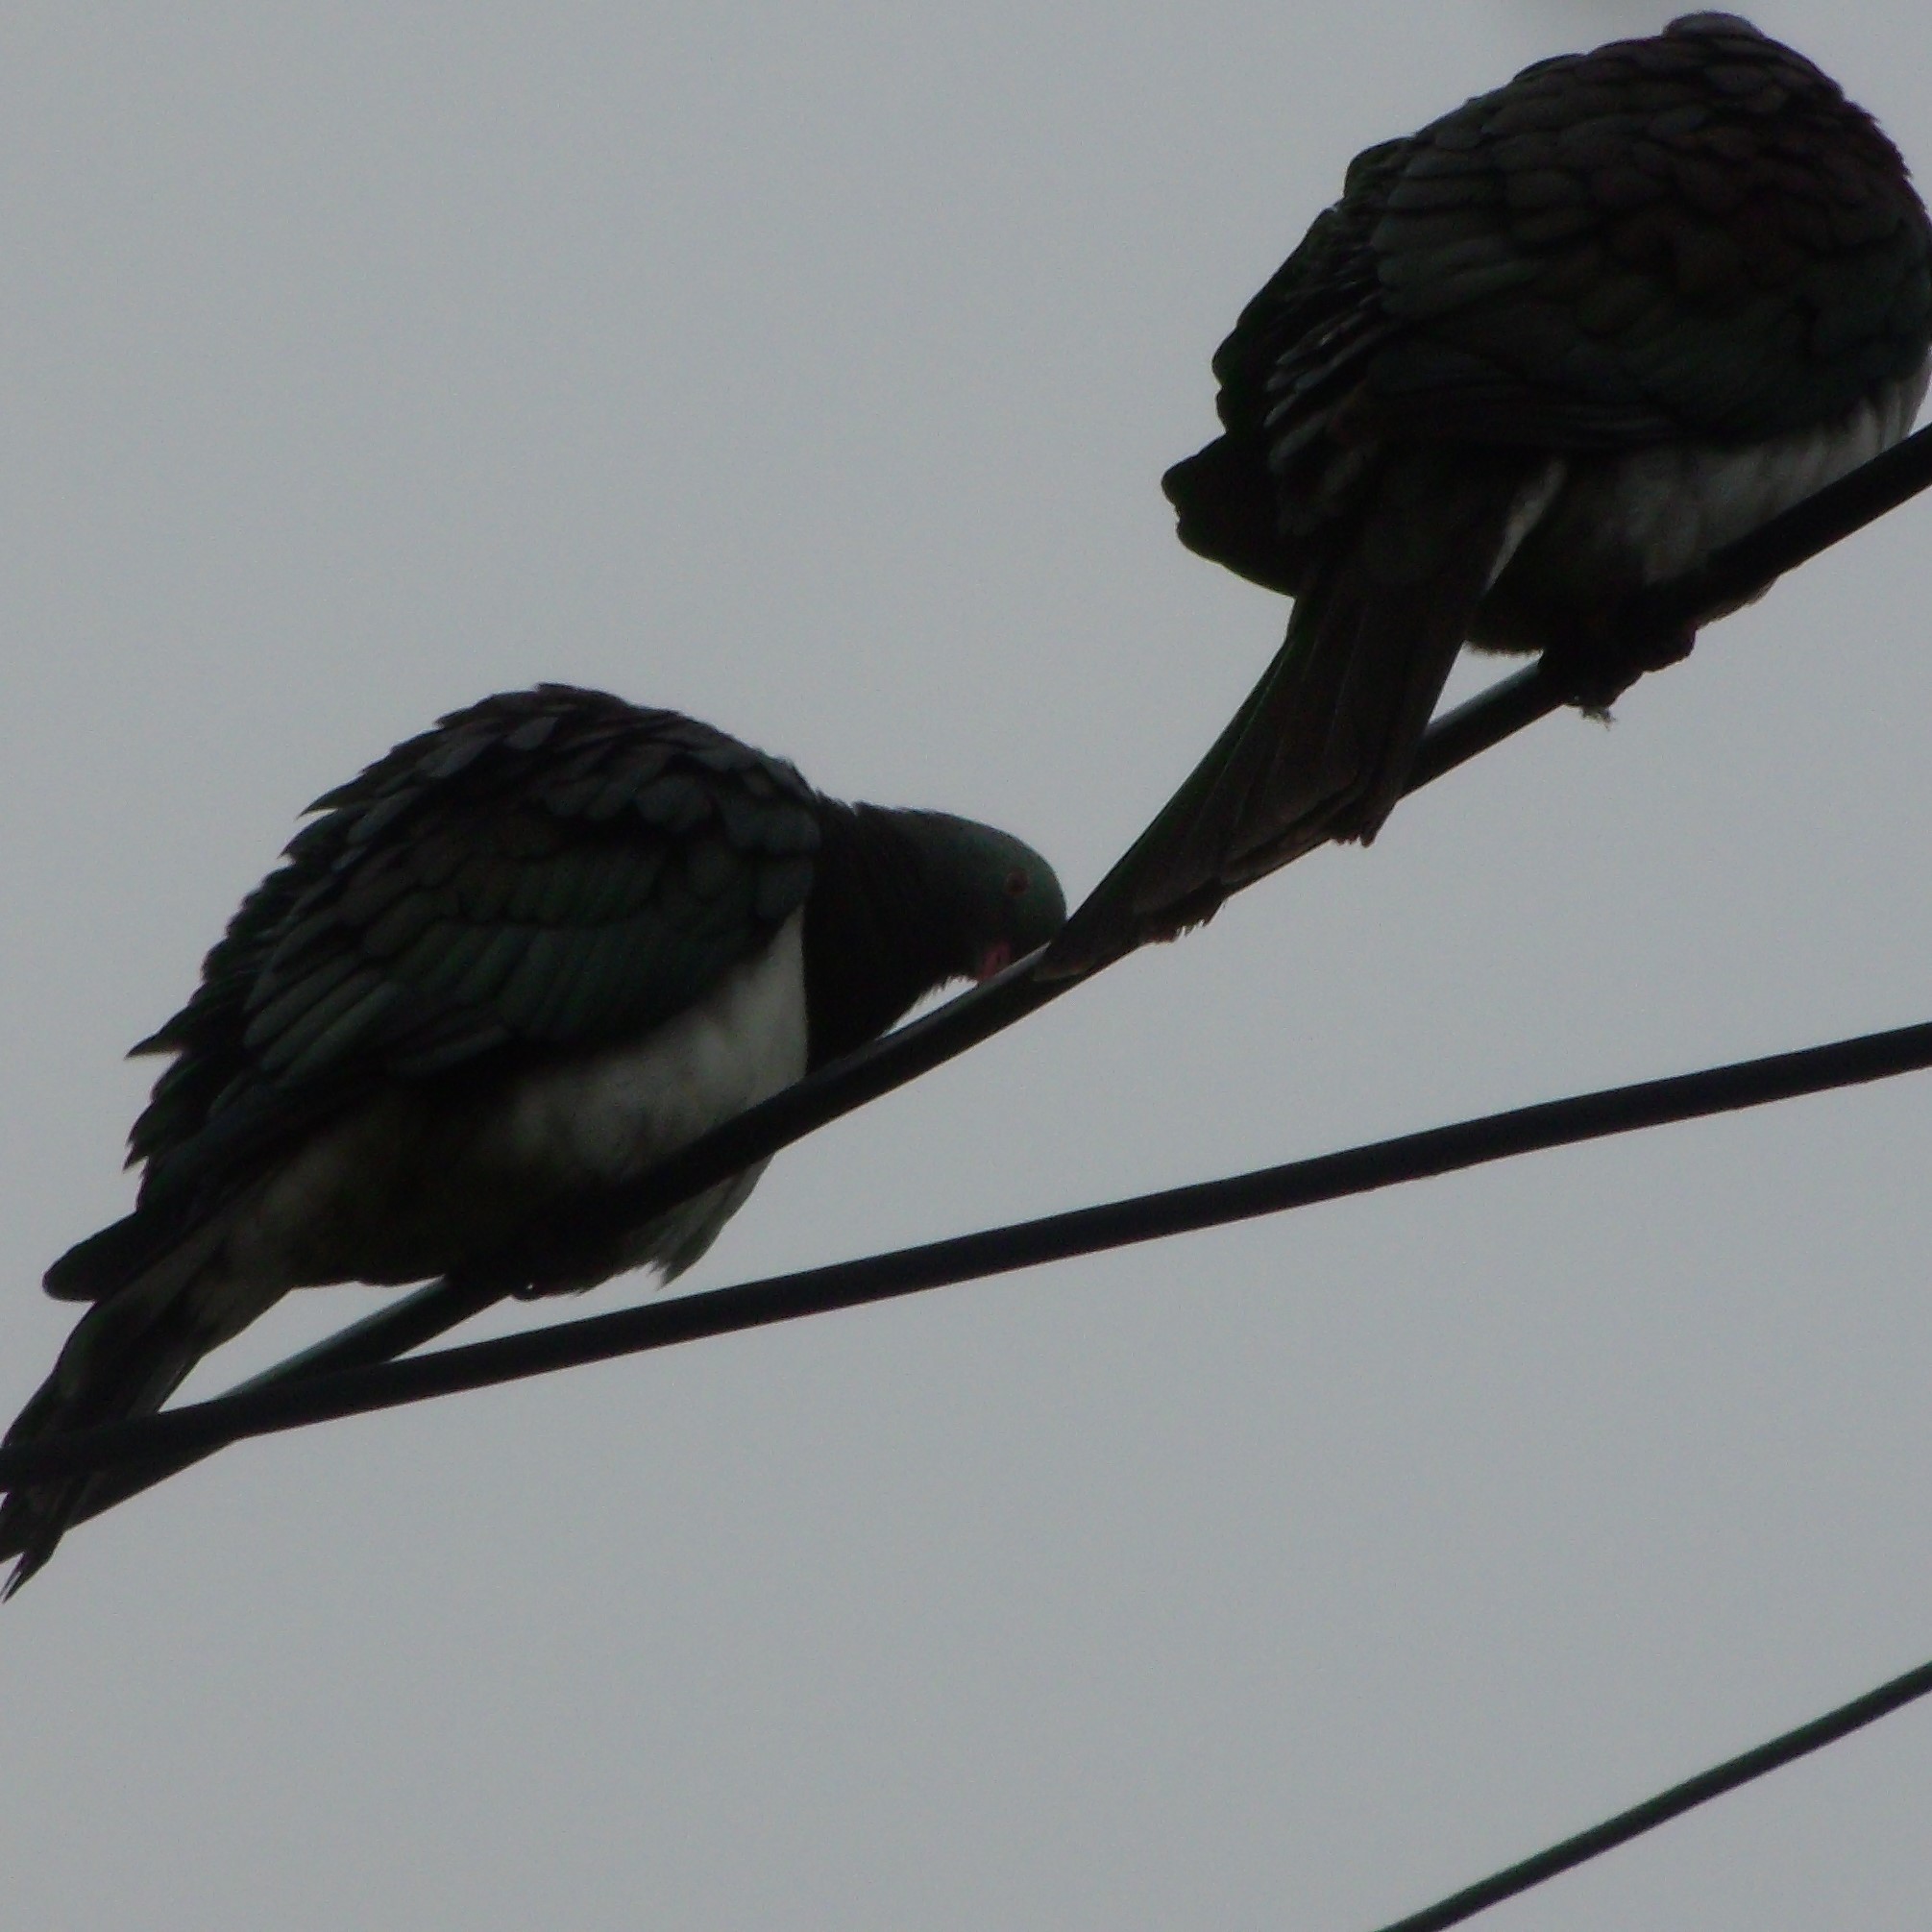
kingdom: Animalia
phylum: Chordata
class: Aves
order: Columbiformes
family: Columbidae
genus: Hemiphaga
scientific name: Hemiphaga novaeseelandiae
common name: New zealand pigeon
